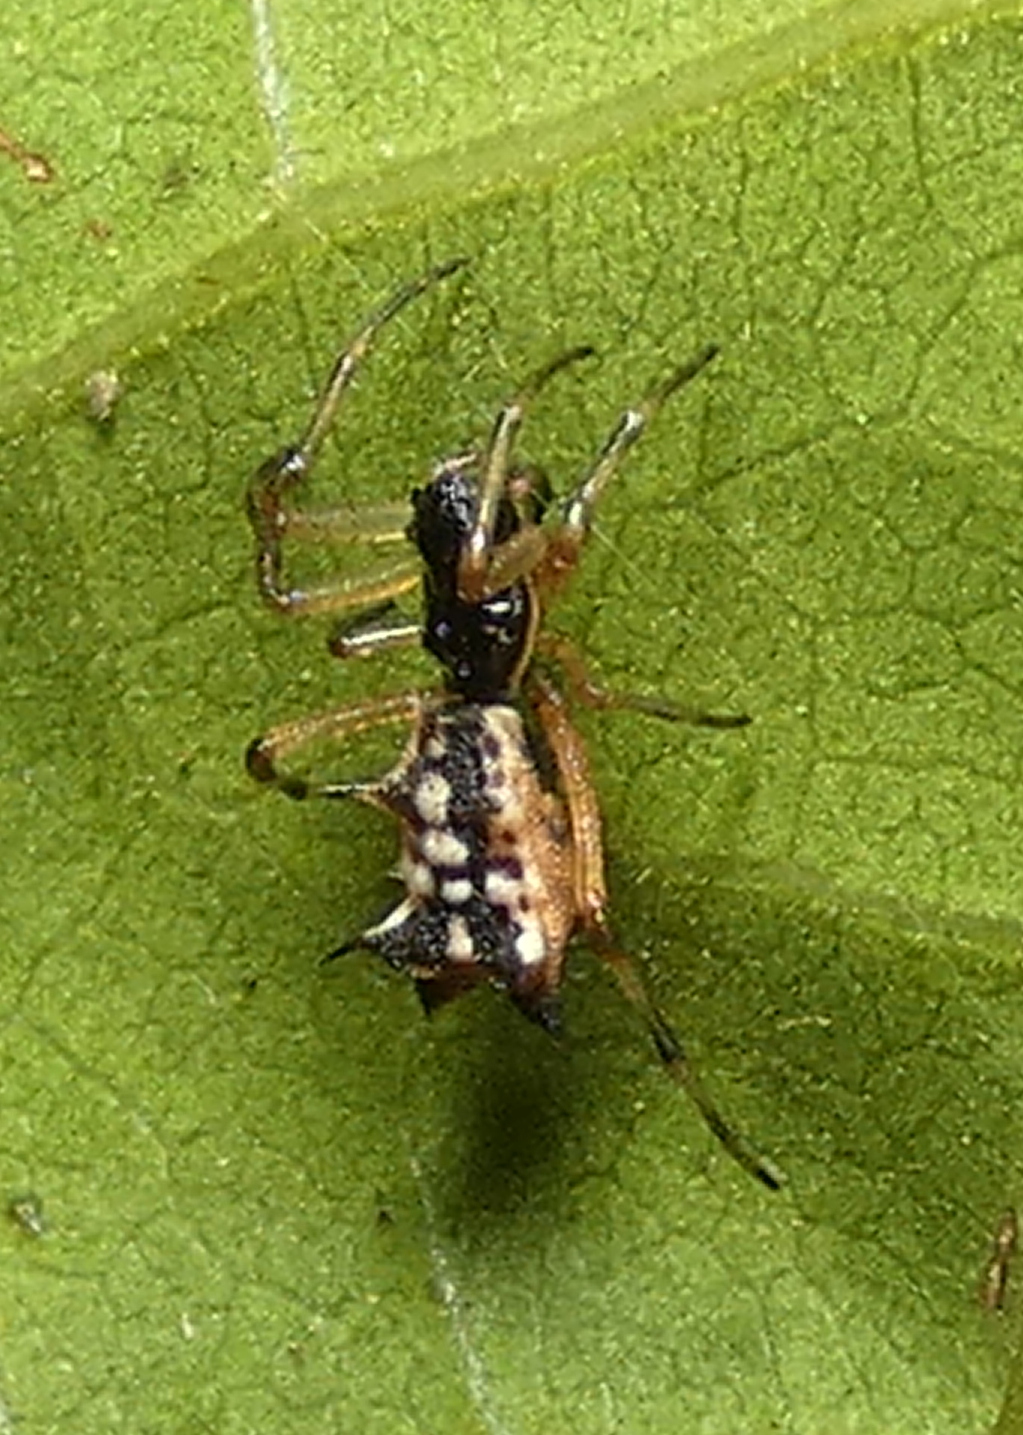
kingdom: Animalia
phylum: Arthropoda
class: Arachnida
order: Araneae
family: Araneidae
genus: Micrathena
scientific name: Micrathena picta
